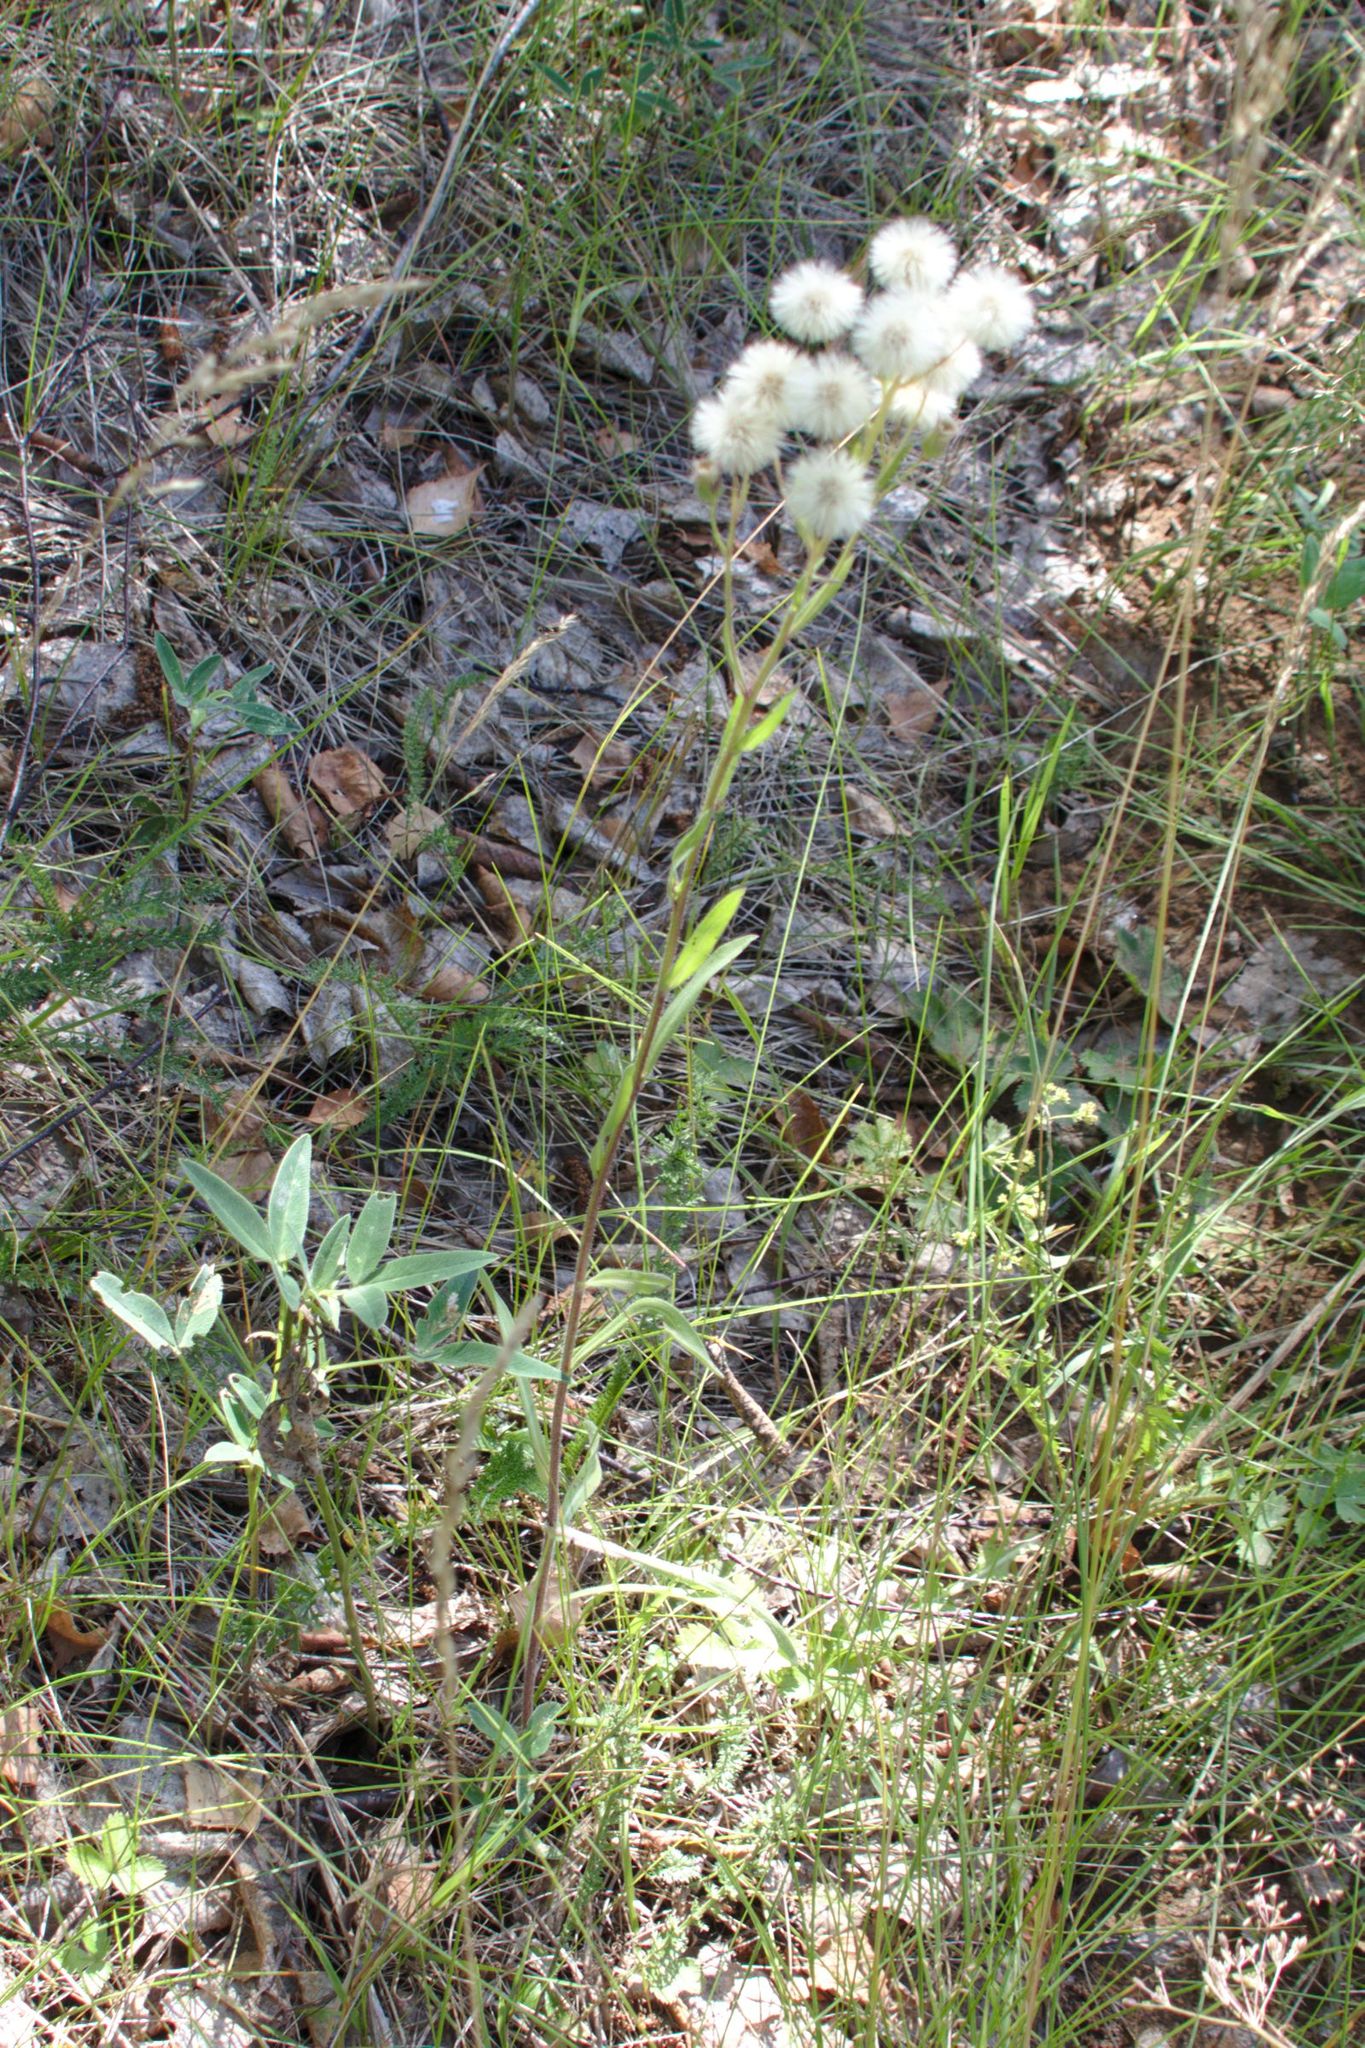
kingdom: Plantae
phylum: Tracheophyta
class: Magnoliopsida
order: Asterales
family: Asteraceae
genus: Erigeron
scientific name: Erigeron acris
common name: Blue fleabane
